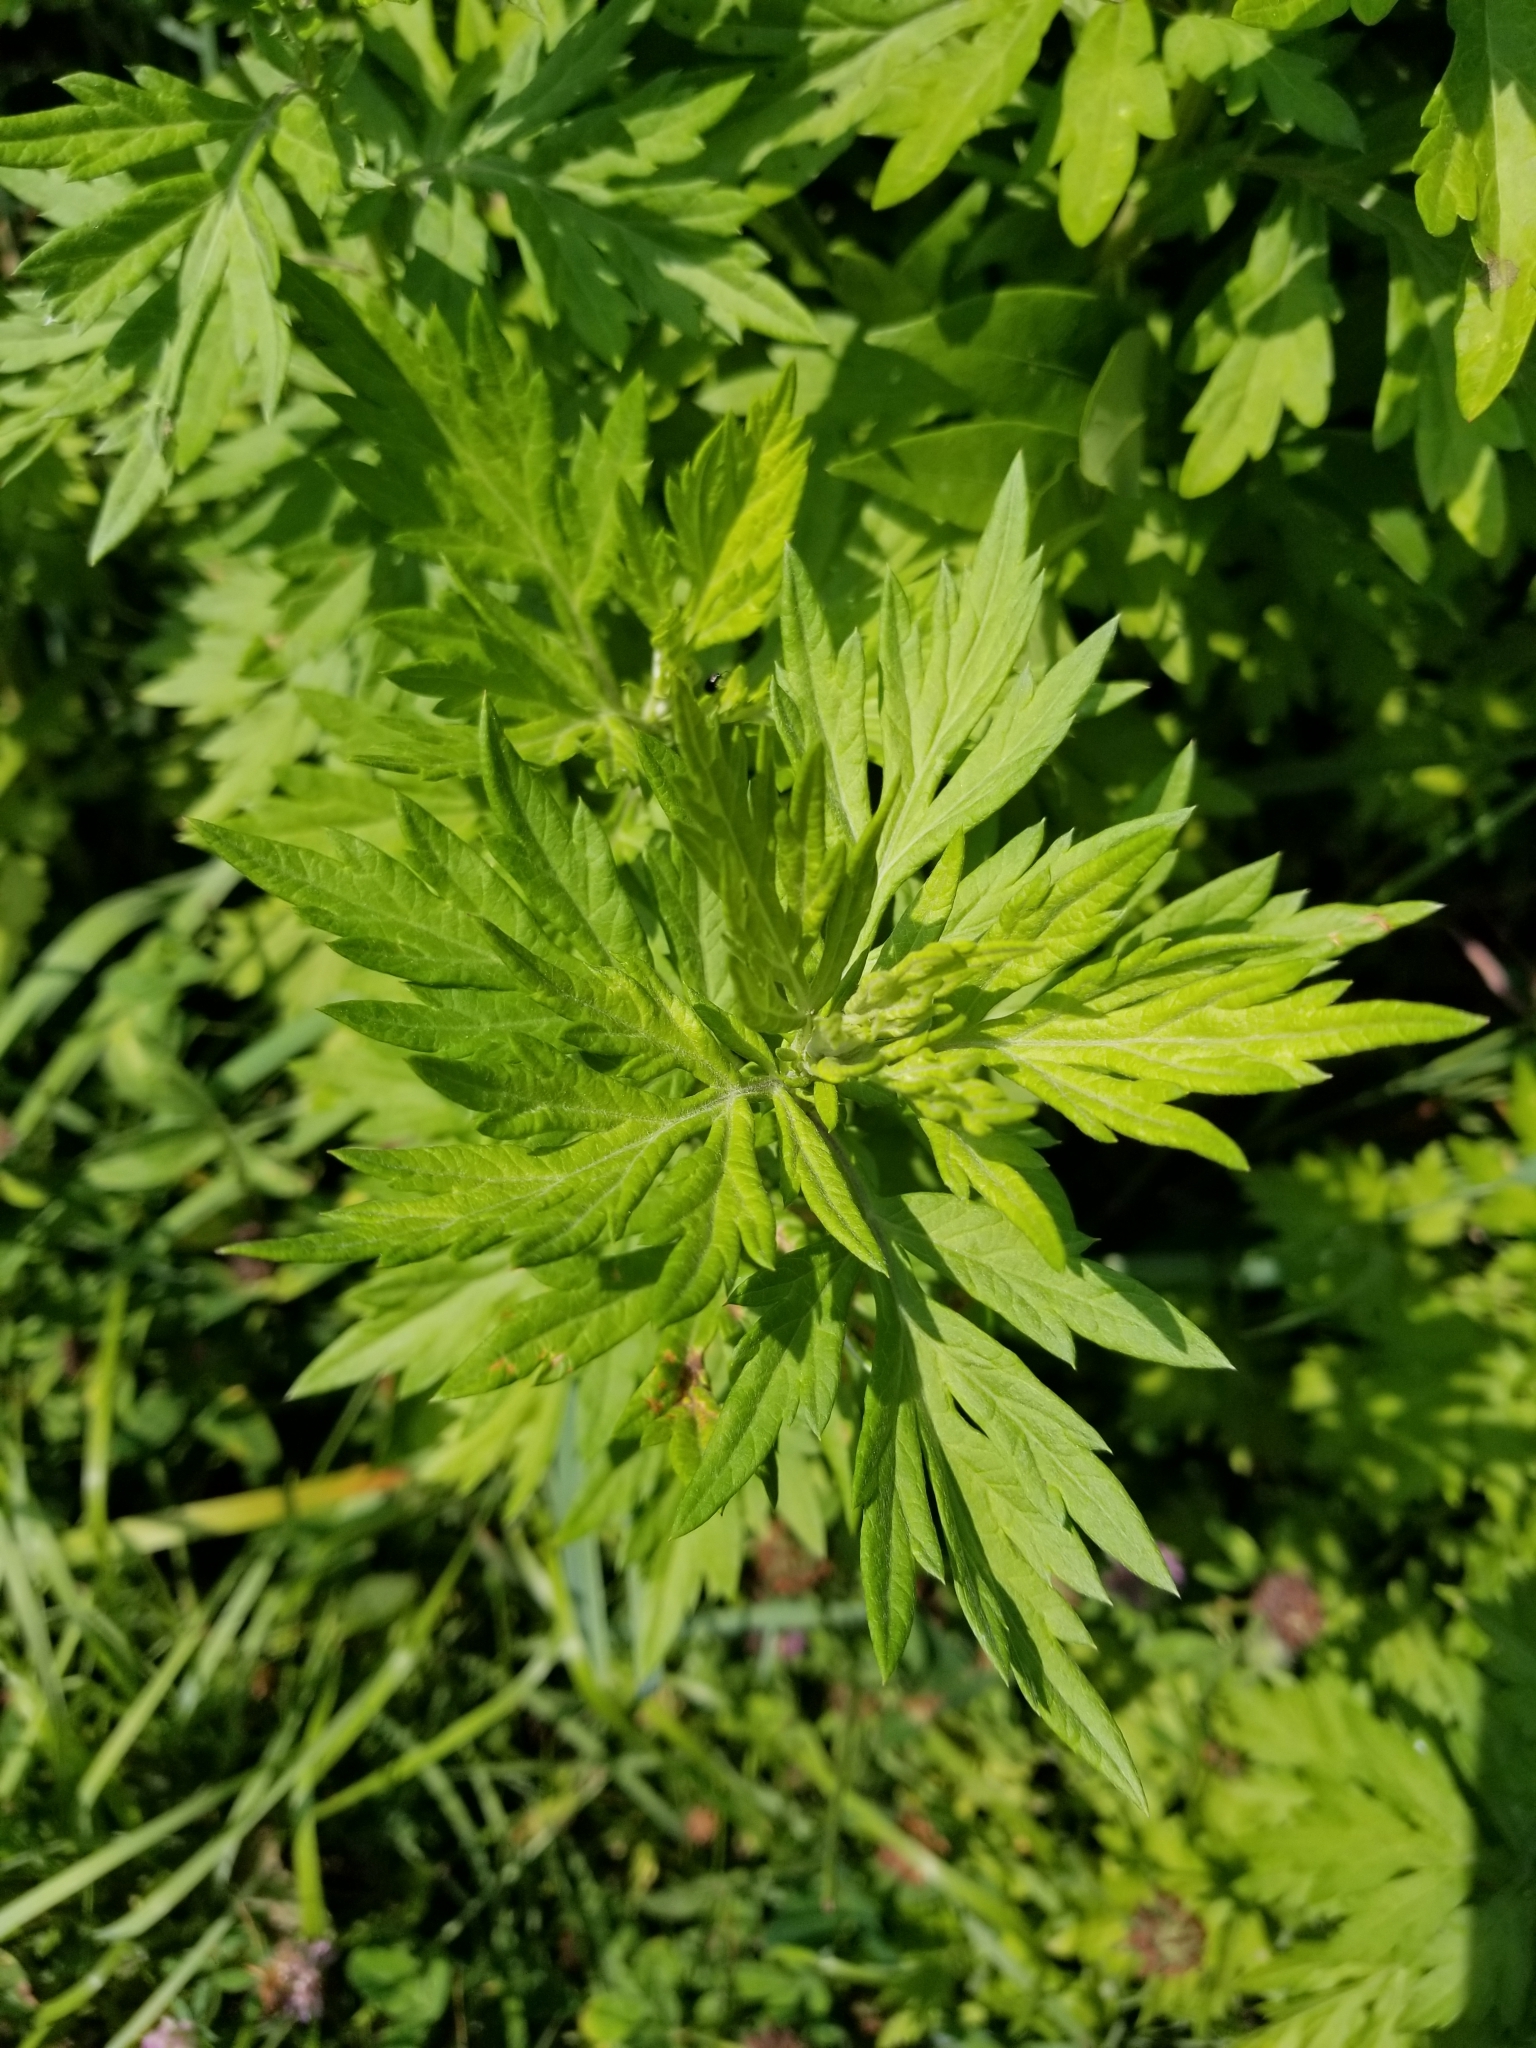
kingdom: Plantae
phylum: Tracheophyta
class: Magnoliopsida
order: Asterales
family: Asteraceae
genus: Artemisia
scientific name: Artemisia vulgaris
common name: Mugwort
